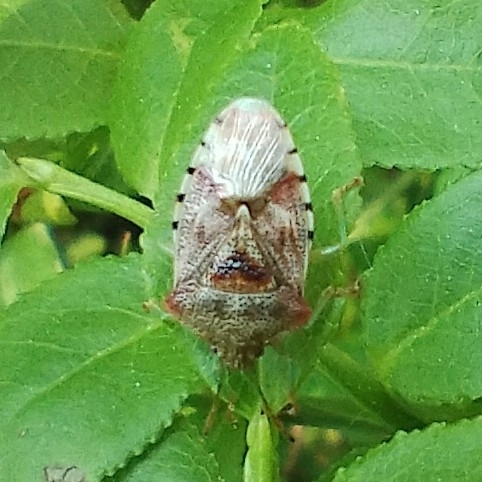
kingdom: Animalia
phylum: Arthropoda
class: Insecta
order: Hemiptera
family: Acanthosomatidae
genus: Elasmucha
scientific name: Elasmucha grisea
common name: Parent bug
